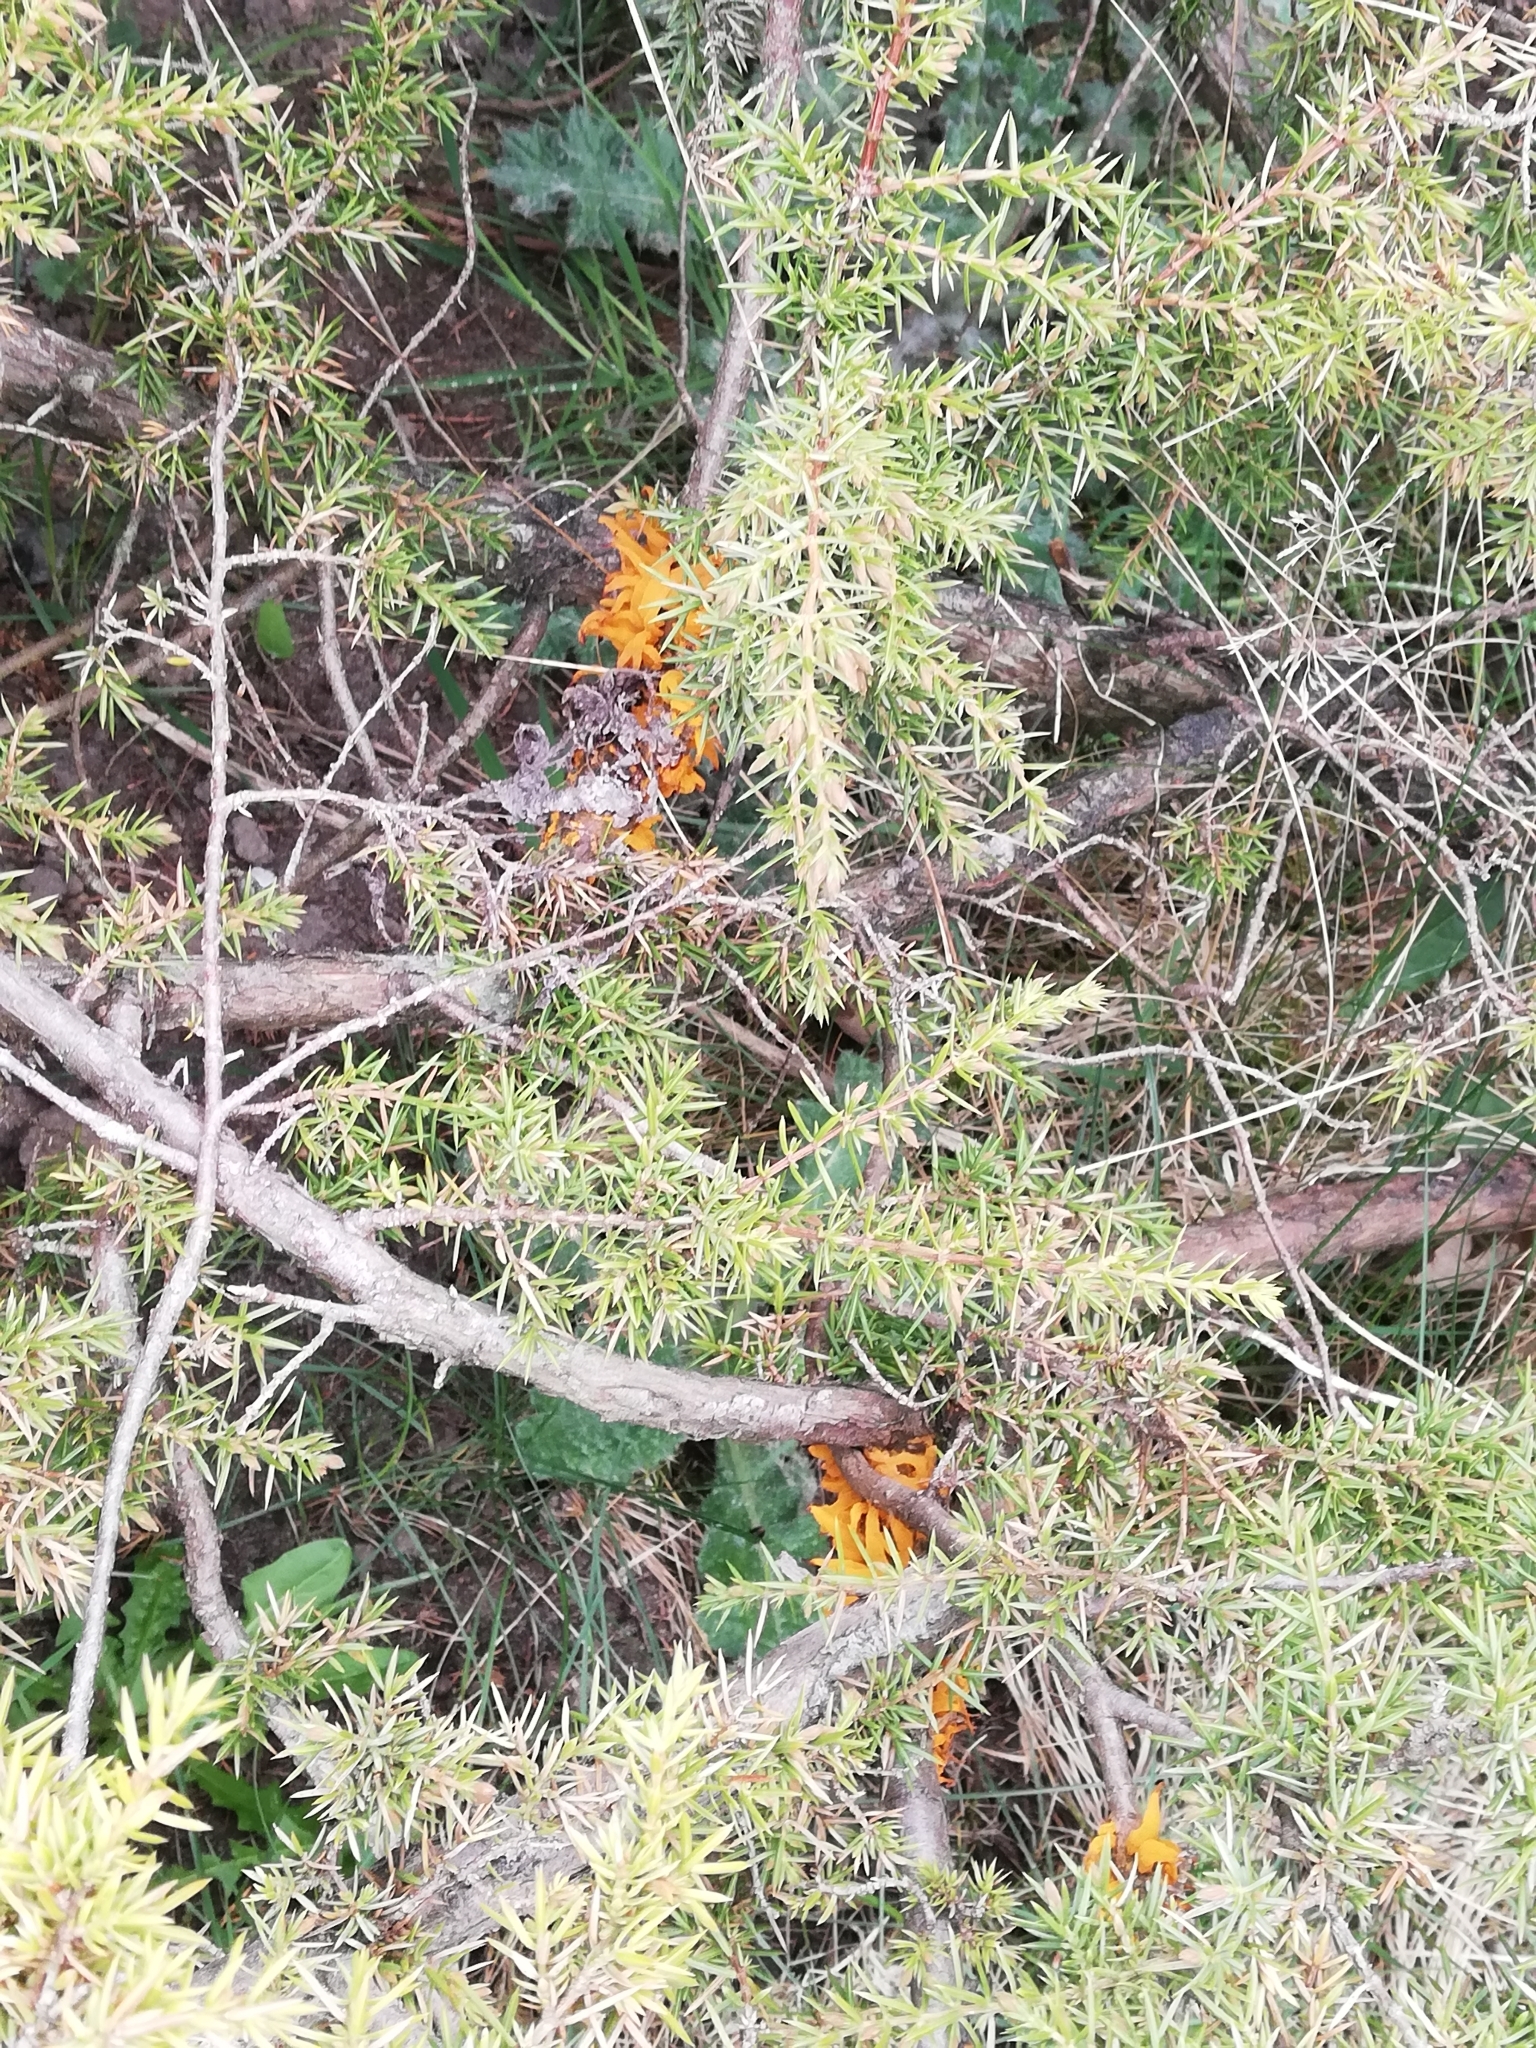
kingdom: Fungi
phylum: Basidiomycota
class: Pucciniomycetes
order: Pucciniales
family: Gymnosporangiaceae
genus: Gymnosporangium
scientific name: Gymnosporangium clavariiforme
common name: Tongues of fire
